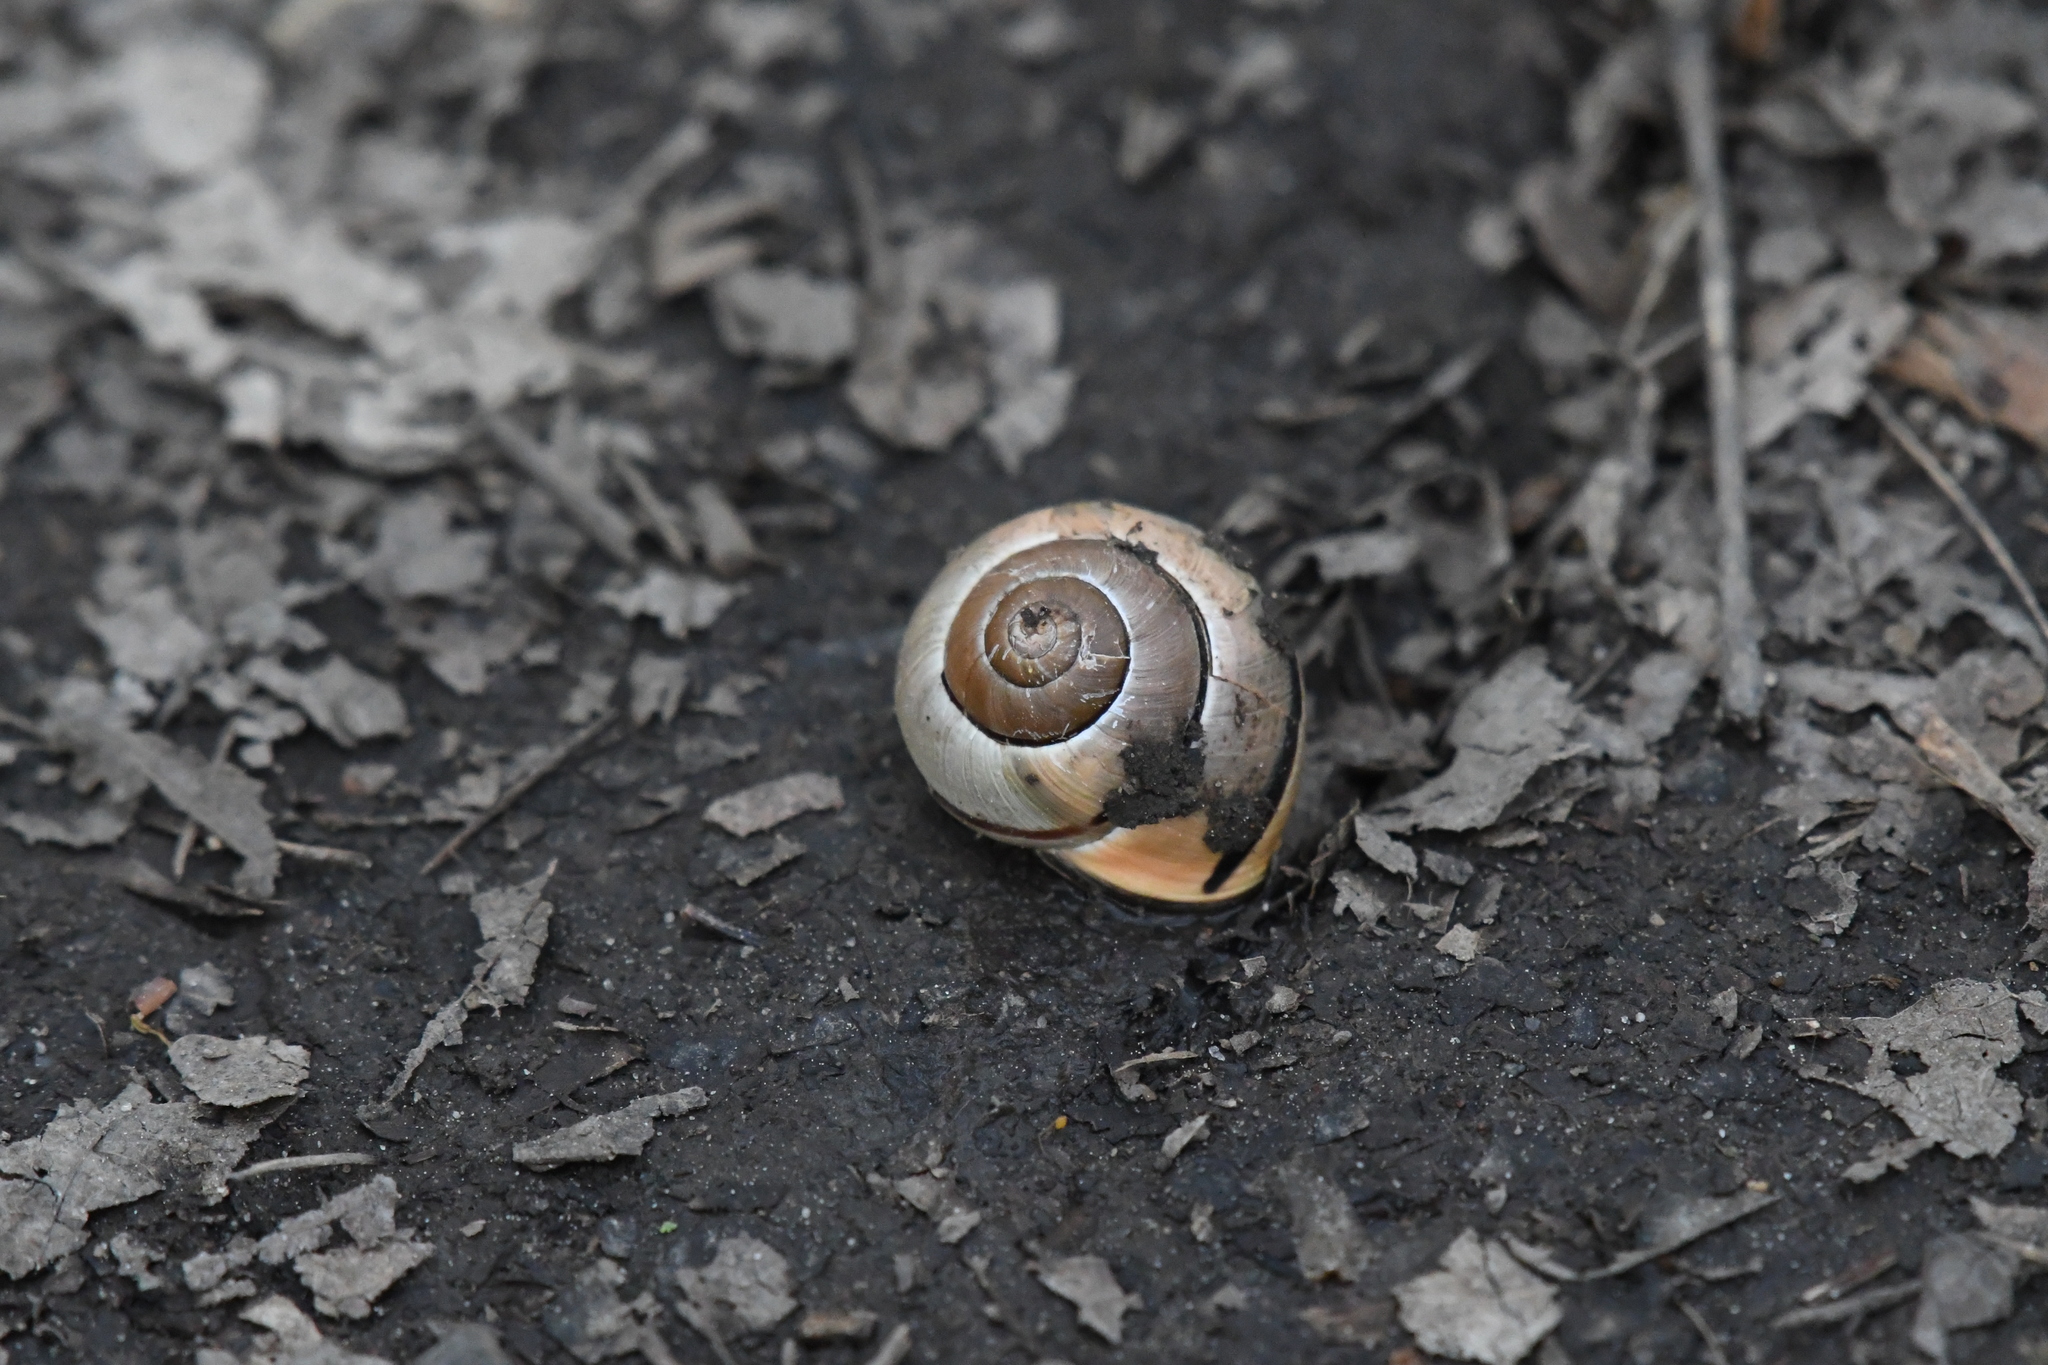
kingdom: Animalia
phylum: Mollusca
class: Gastropoda
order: Stylommatophora
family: Helicidae
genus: Cepaea
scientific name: Cepaea nemoralis
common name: Grovesnail
